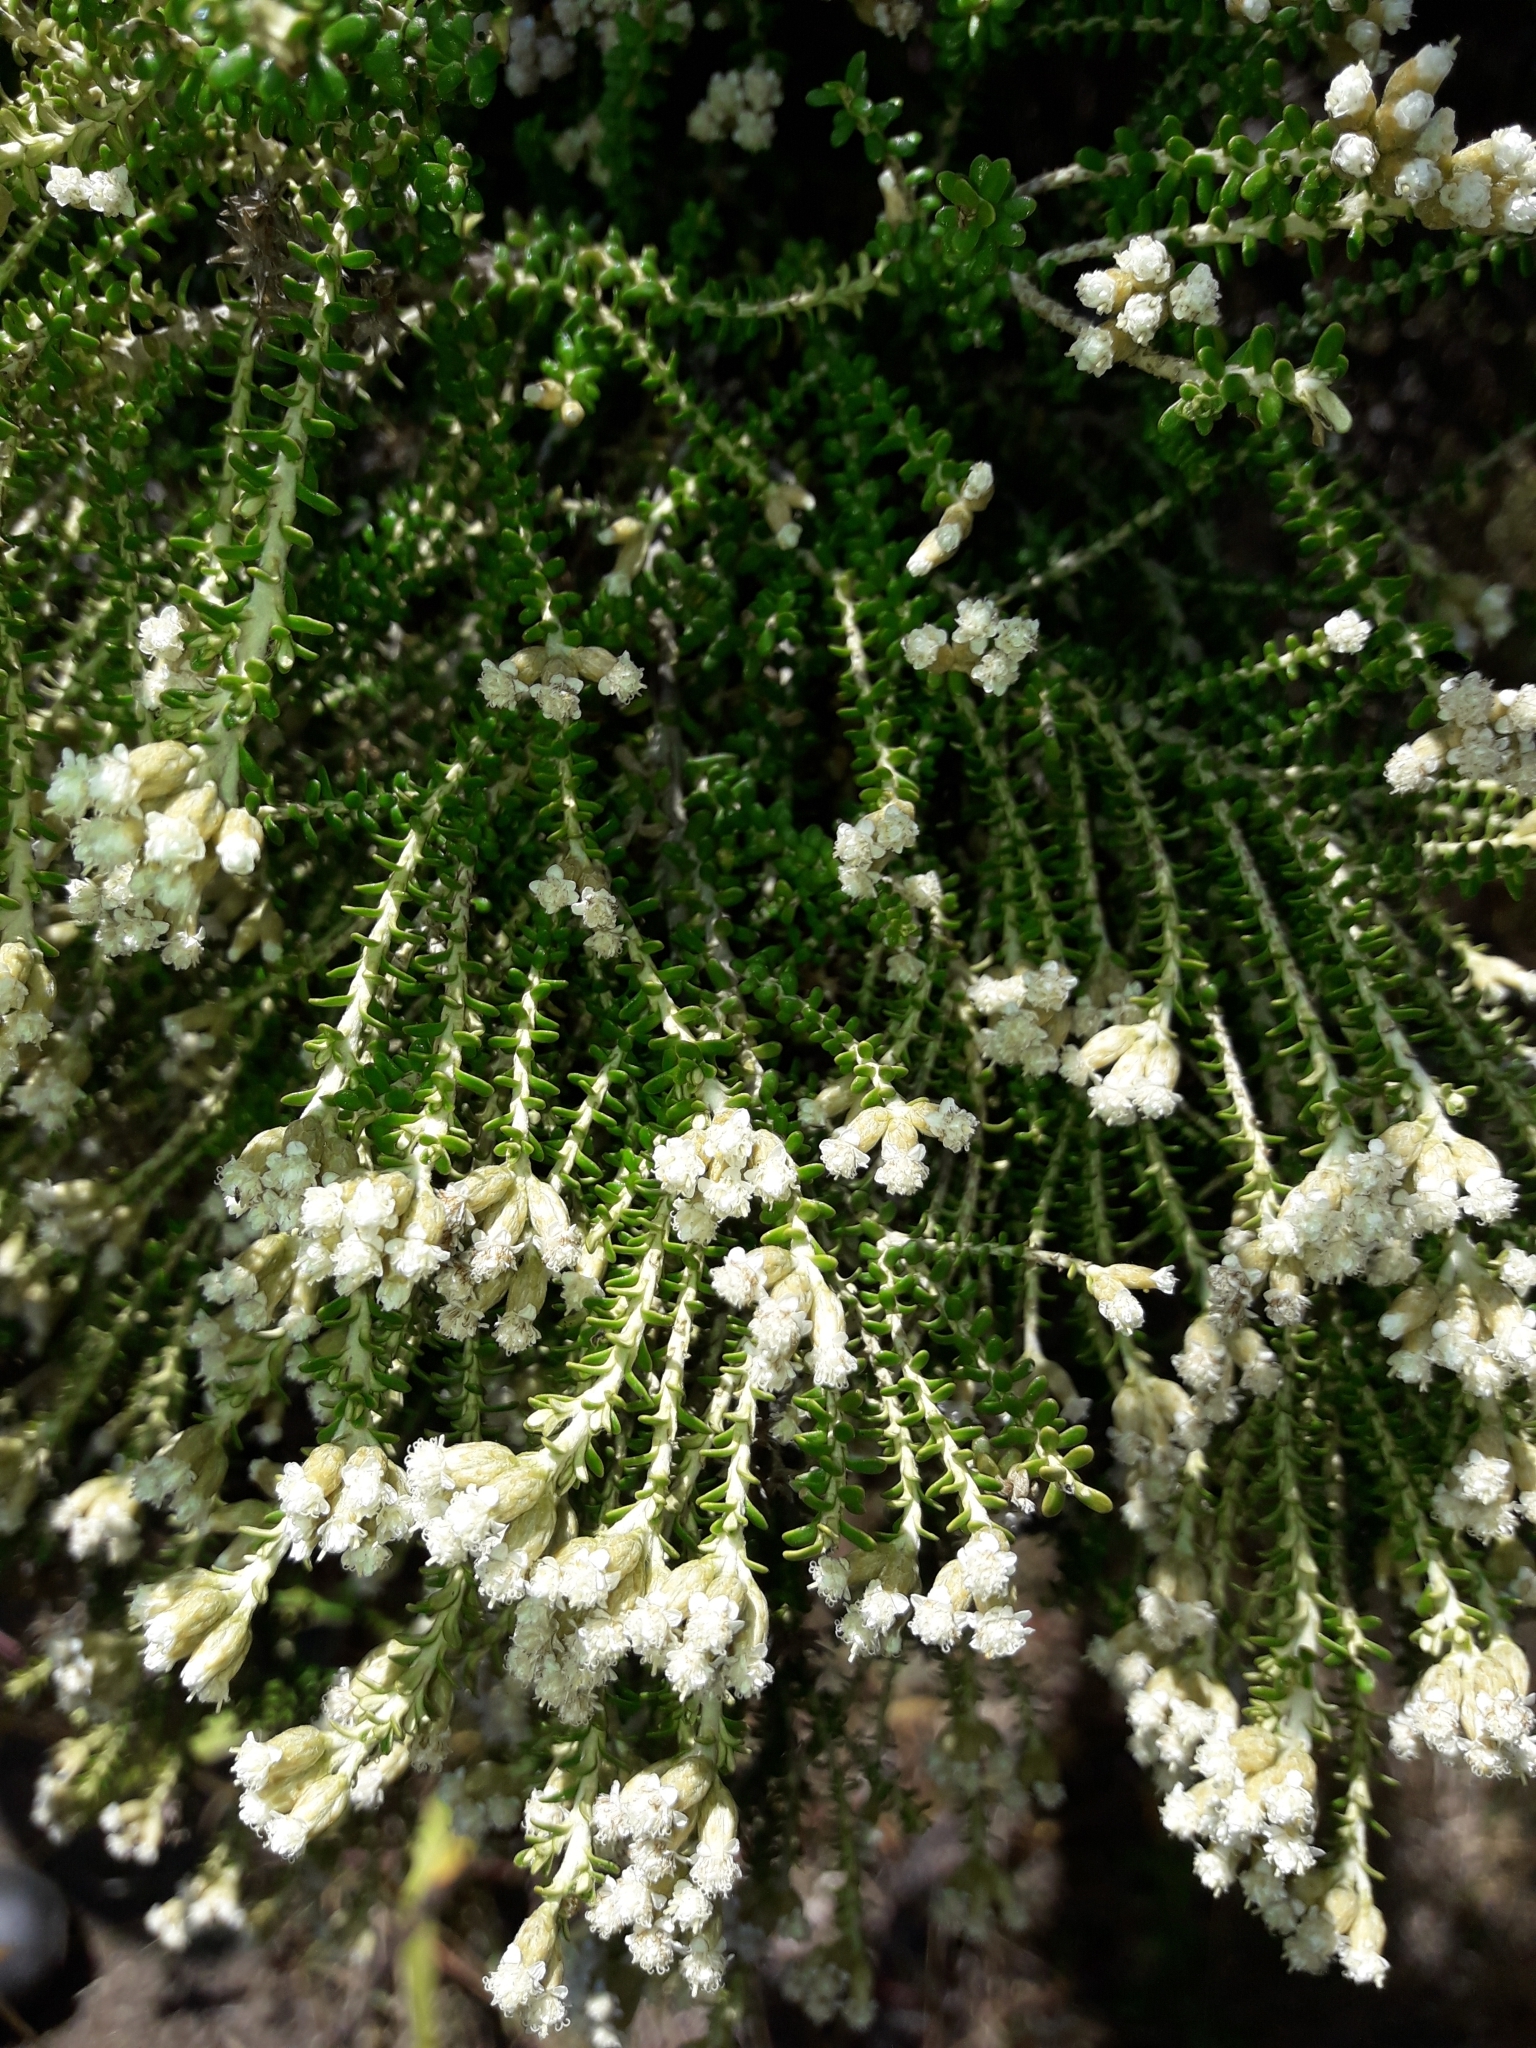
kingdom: Plantae
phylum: Tracheophyta
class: Magnoliopsida
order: Asterales
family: Asteraceae
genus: Ozothamnus
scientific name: Ozothamnus leptophyllus
